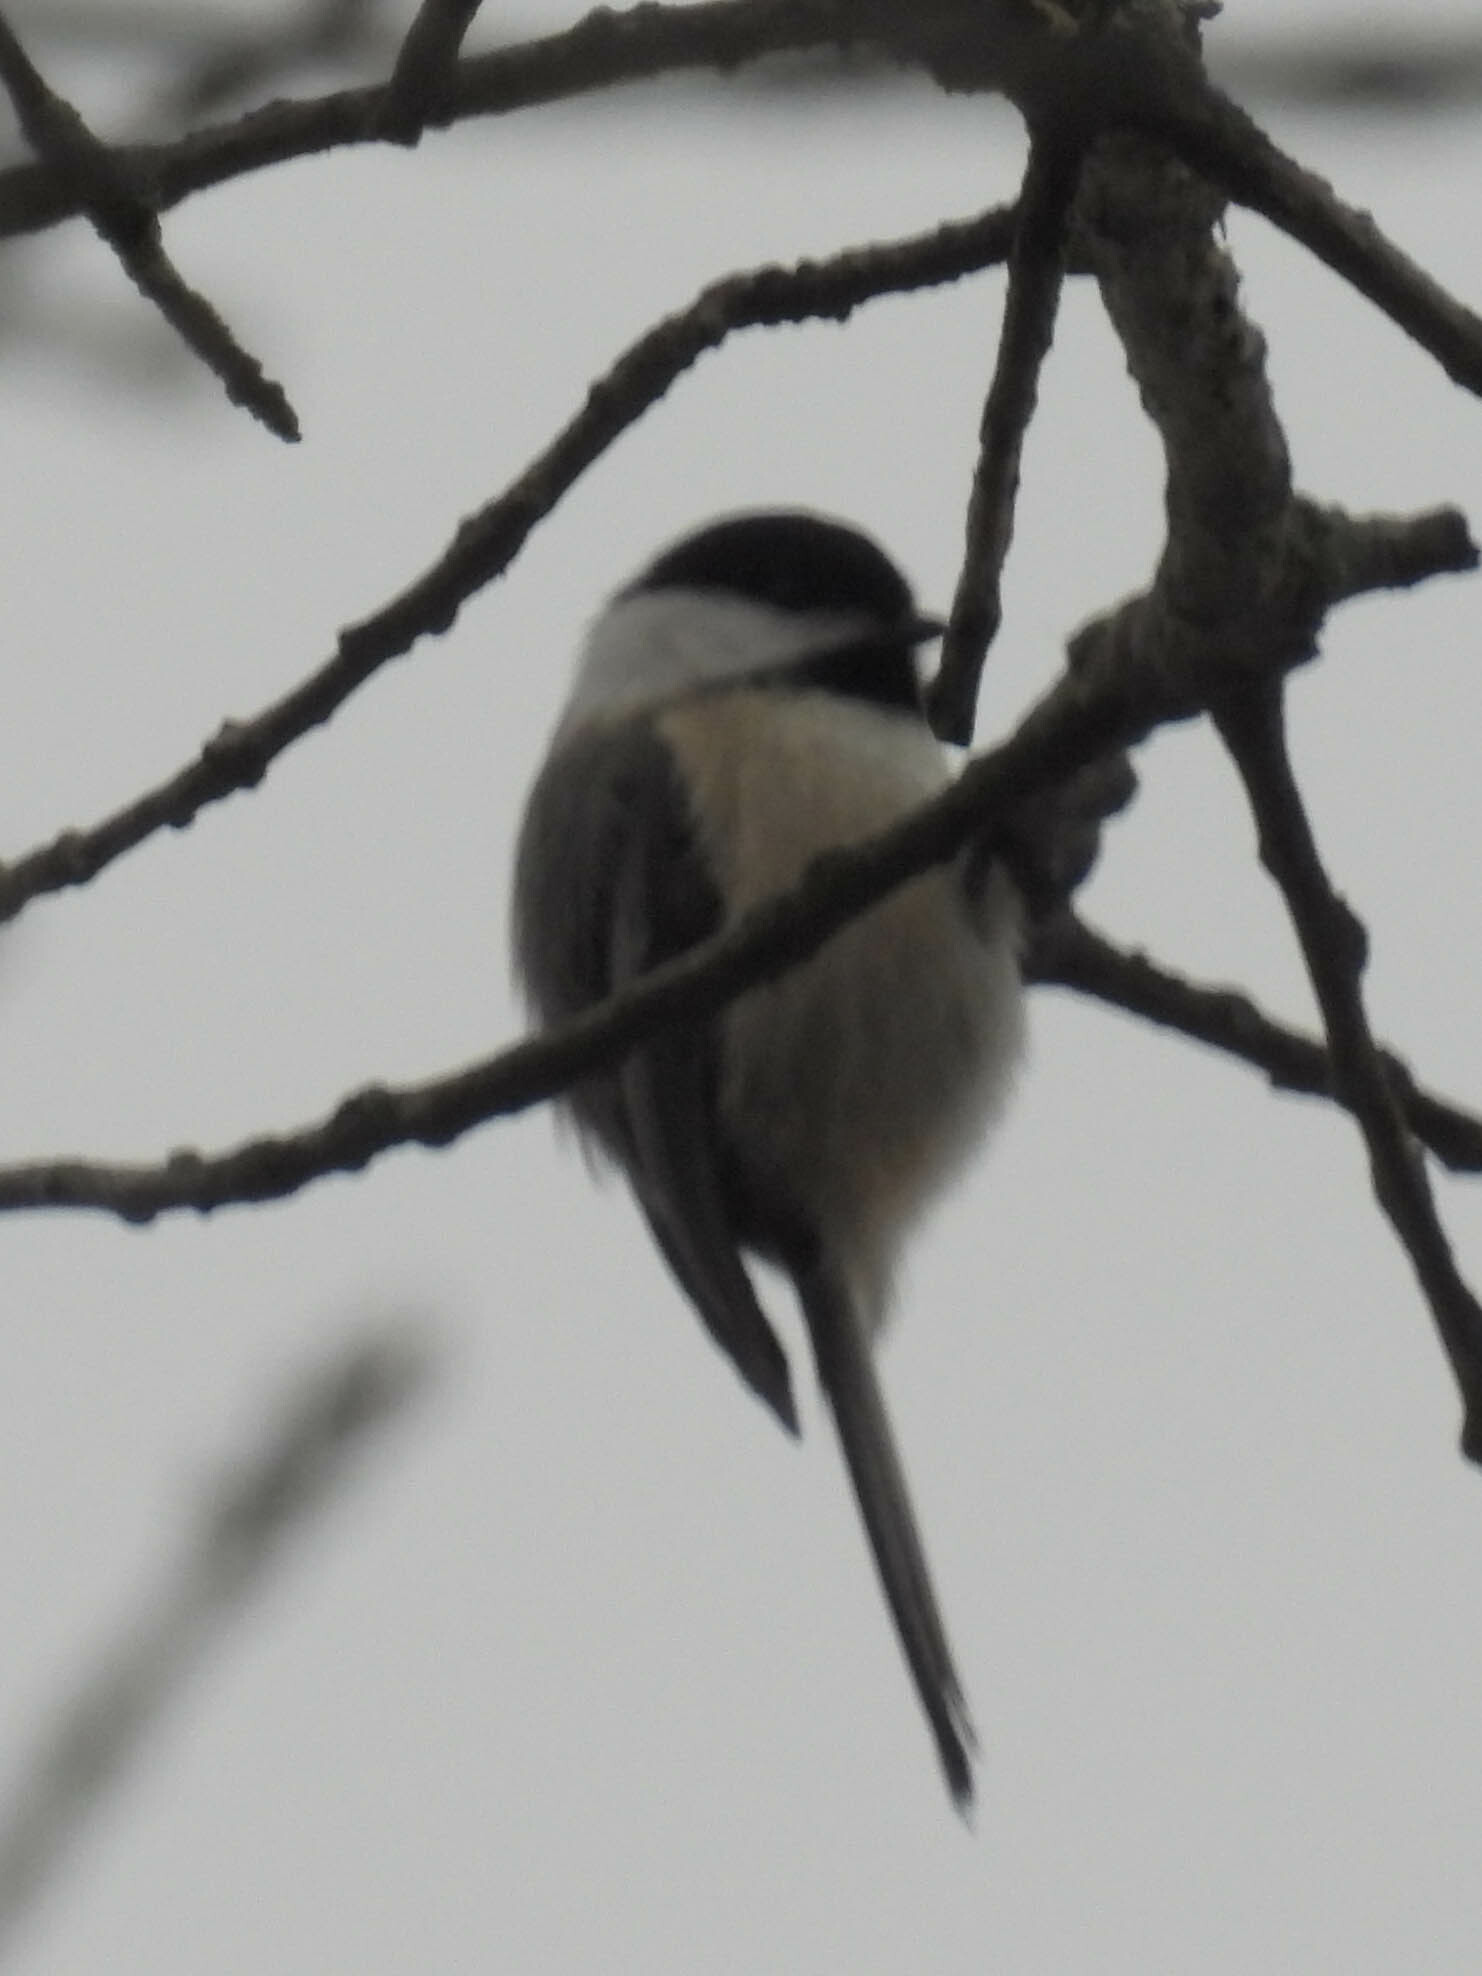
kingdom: Animalia
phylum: Chordata
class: Aves
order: Passeriformes
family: Paridae
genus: Poecile
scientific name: Poecile atricapillus
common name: Black-capped chickadee
